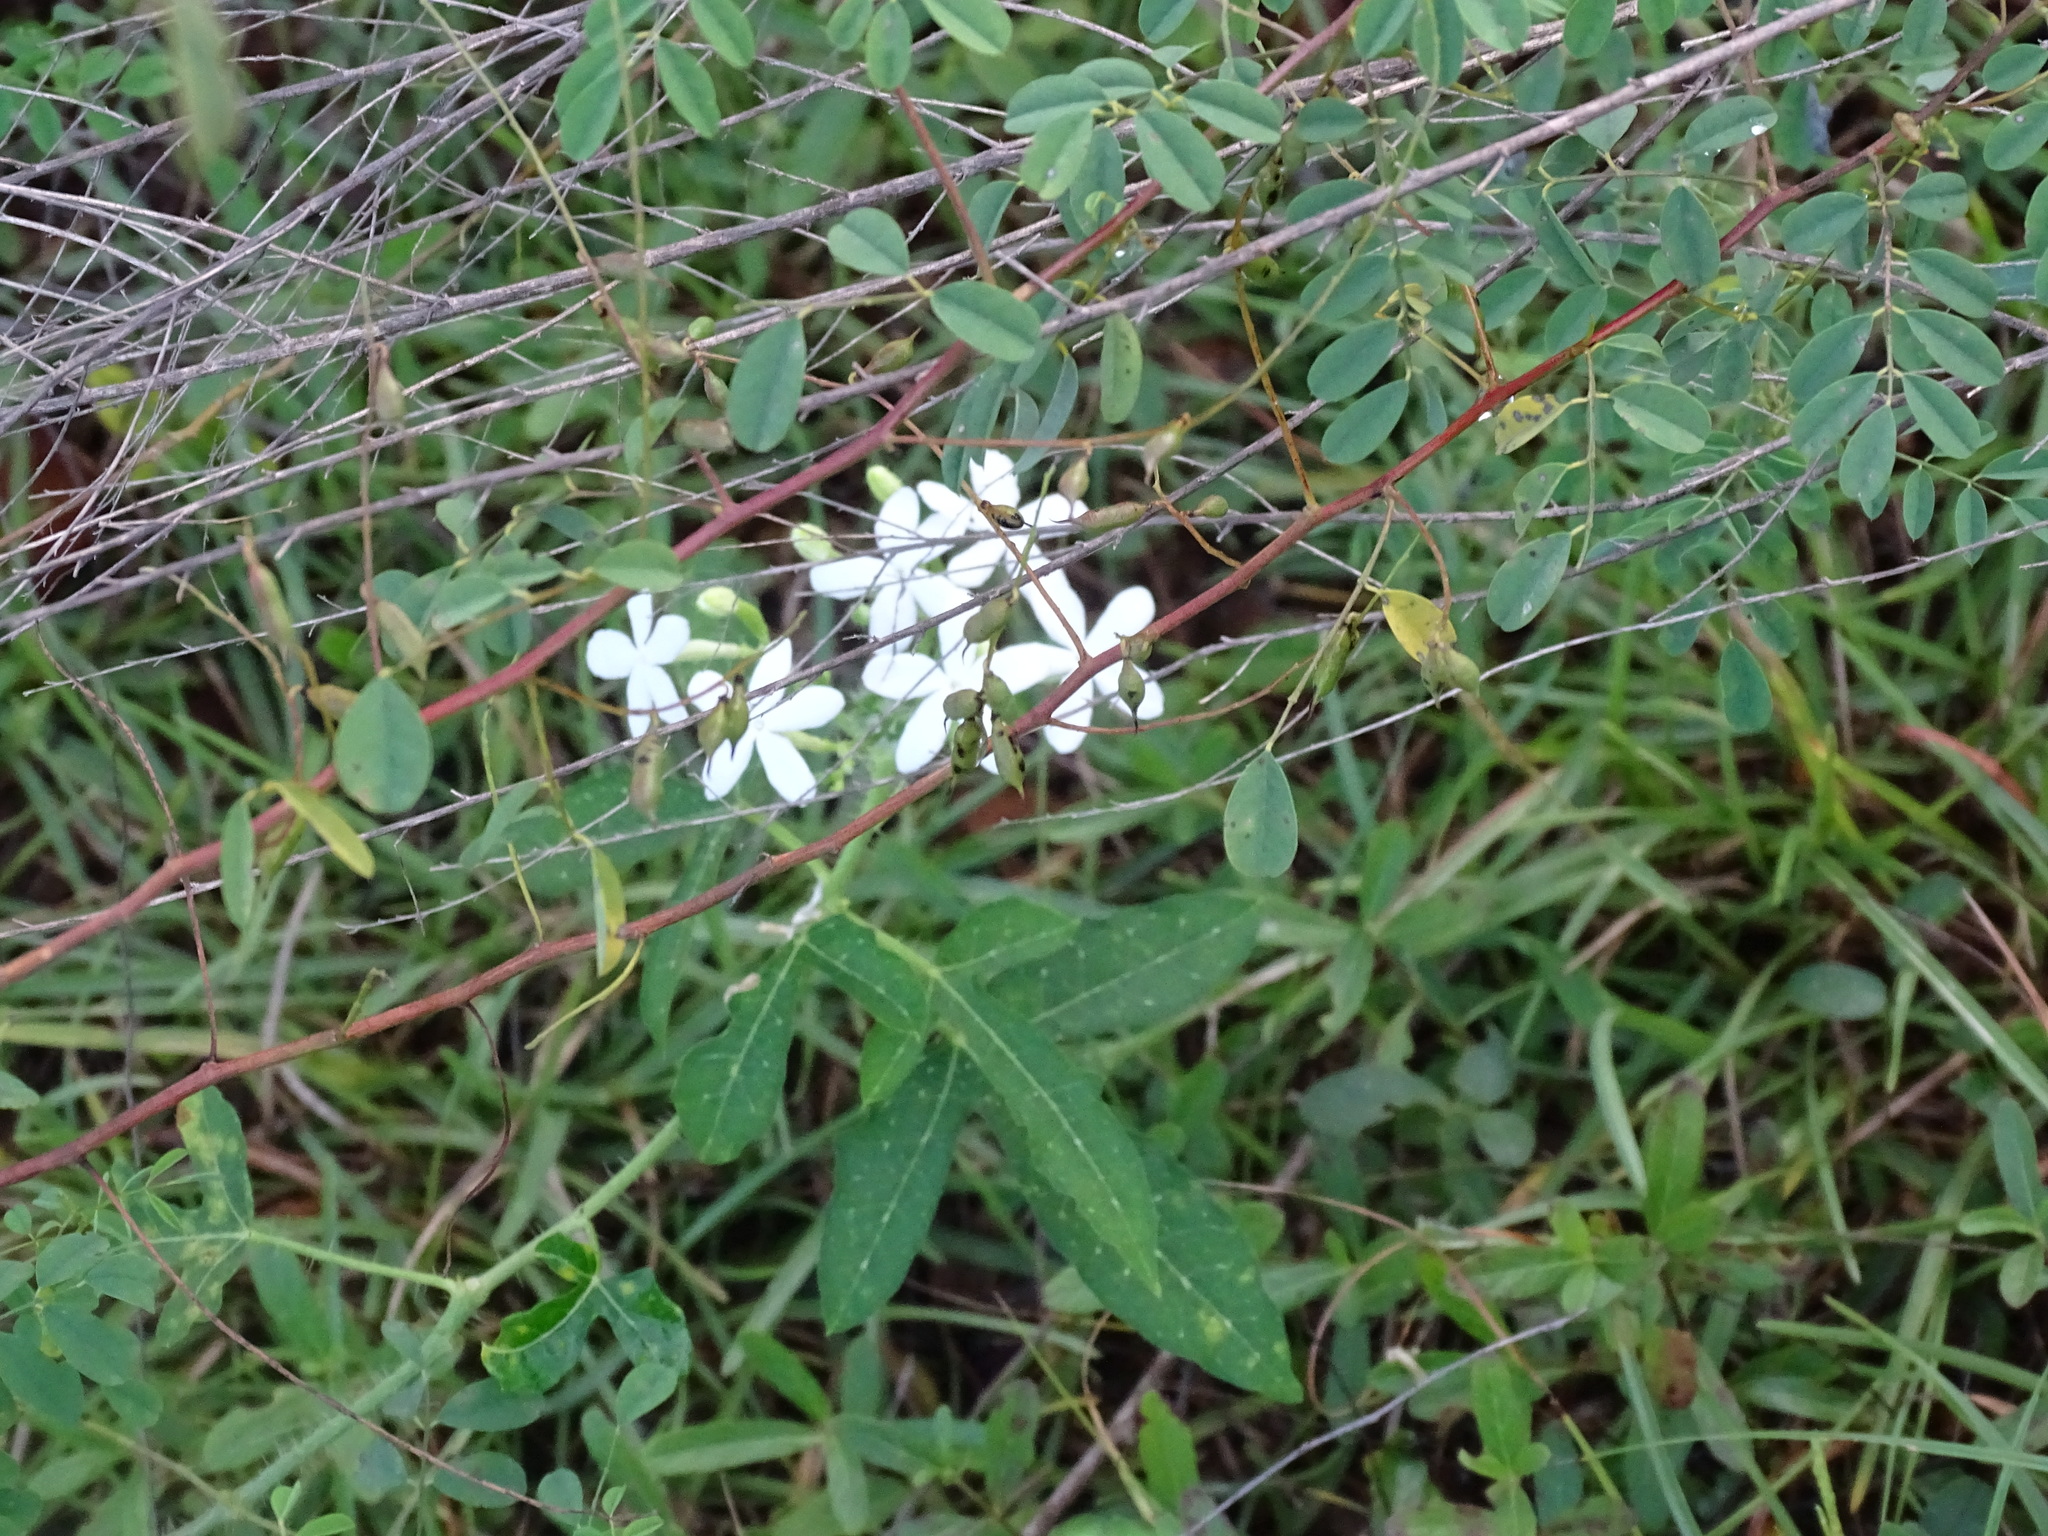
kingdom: Plantae
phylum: Tracheophyta
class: Magnoliopsida
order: Malpighiales
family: Euphorbiaceae
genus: Cnidoscolus
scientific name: Cnidoscolus stimulosus
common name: Bull-nettle
